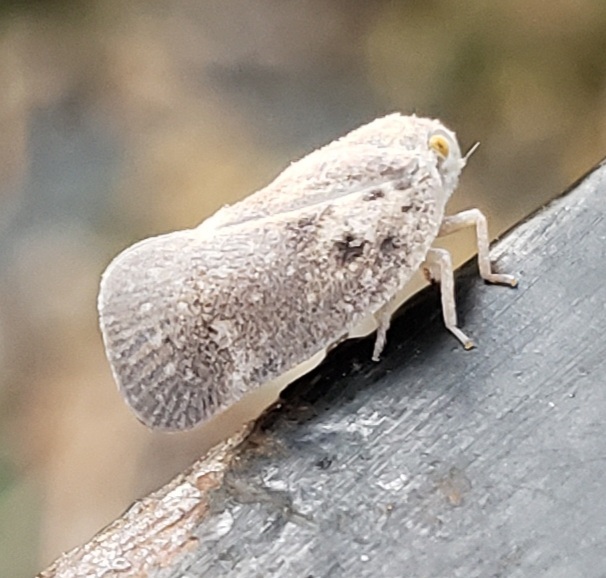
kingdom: Animalia
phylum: Arthropoda
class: Insecta
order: Hemiptera
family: Flatidae
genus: Metcalfa
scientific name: Metcalfa pruinosa
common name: Citrus flatid planthopper
